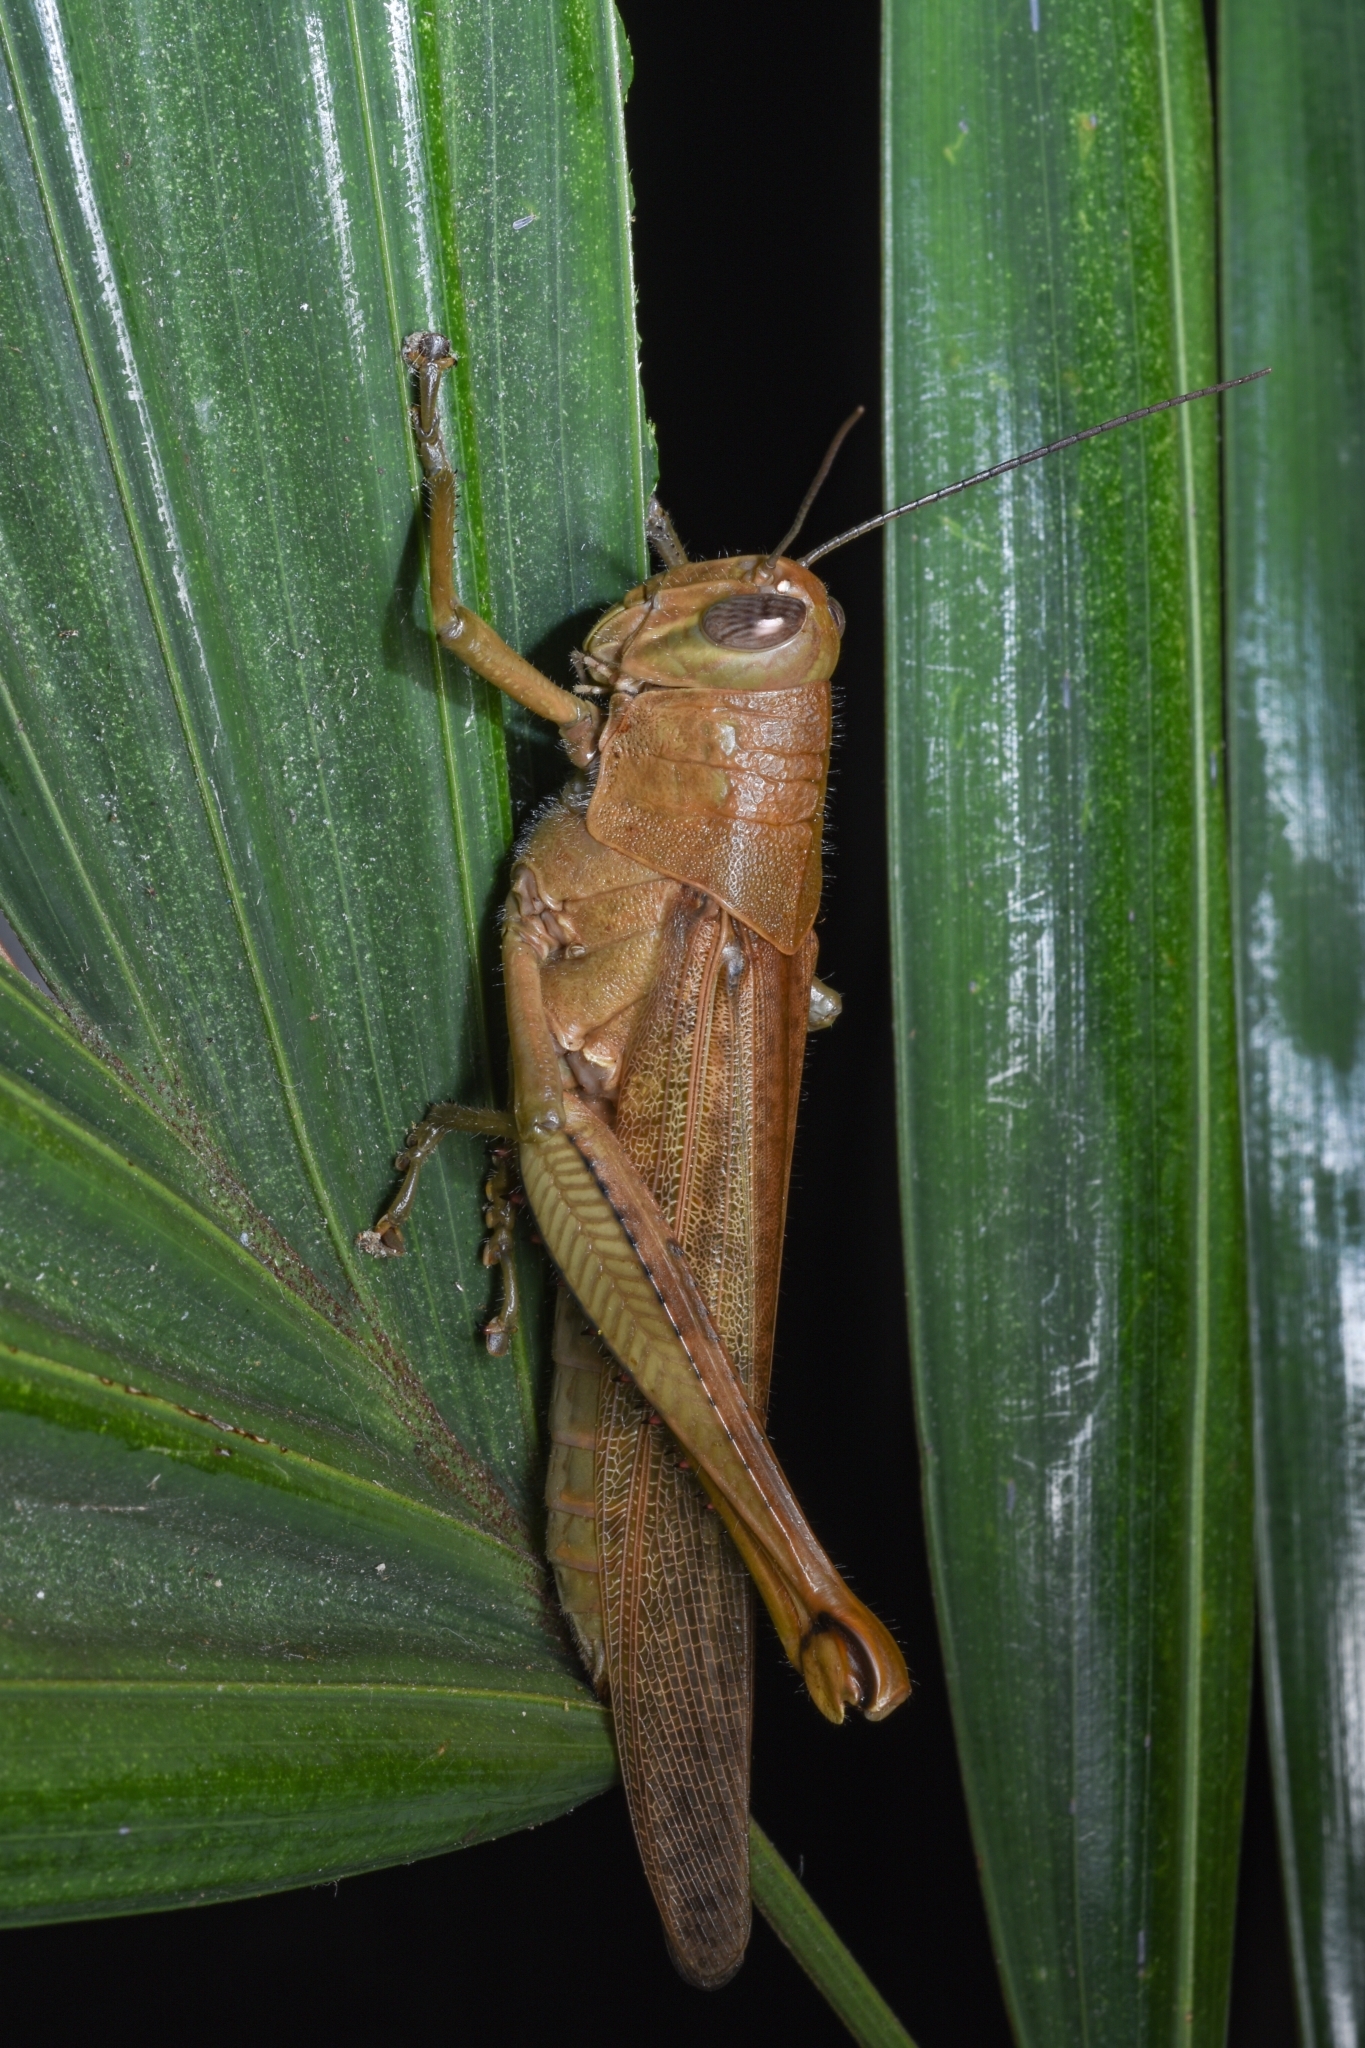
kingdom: Animalia
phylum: Arthropoda
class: Insecta
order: Orthoptera
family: Acrididae
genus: Valanga
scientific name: Valanga irregularis
